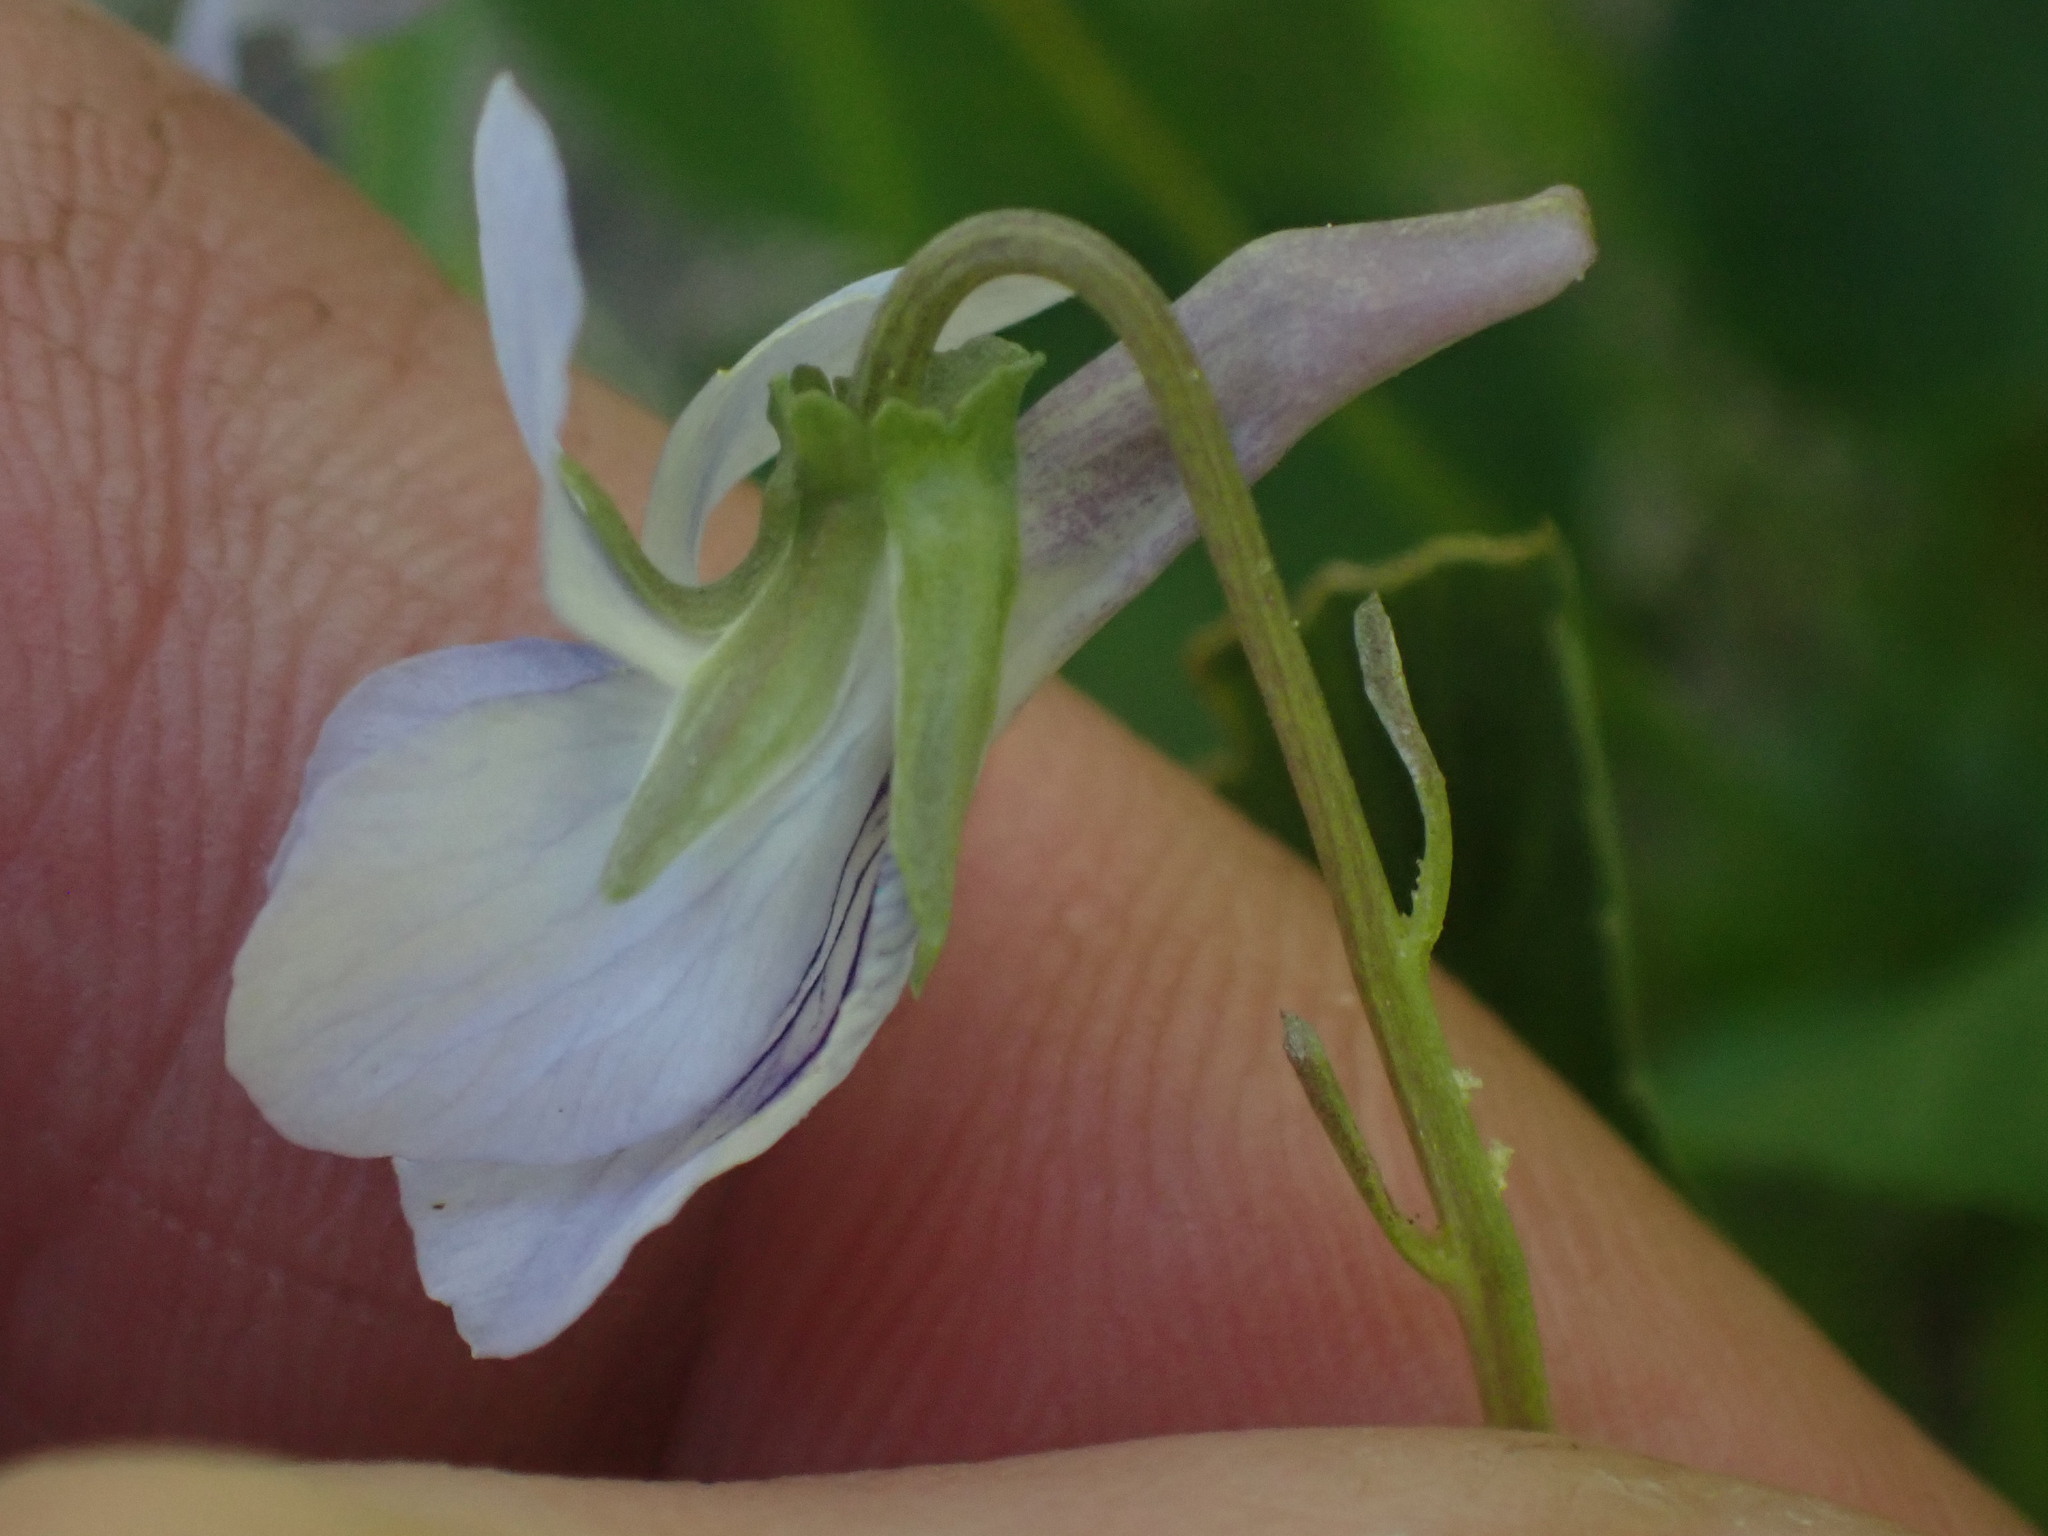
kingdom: Plantae
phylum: Tracheophyta
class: Magnoliopsida
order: Malpighiales
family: Violaceae
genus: Viola
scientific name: Viola adunca
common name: Sand violet
